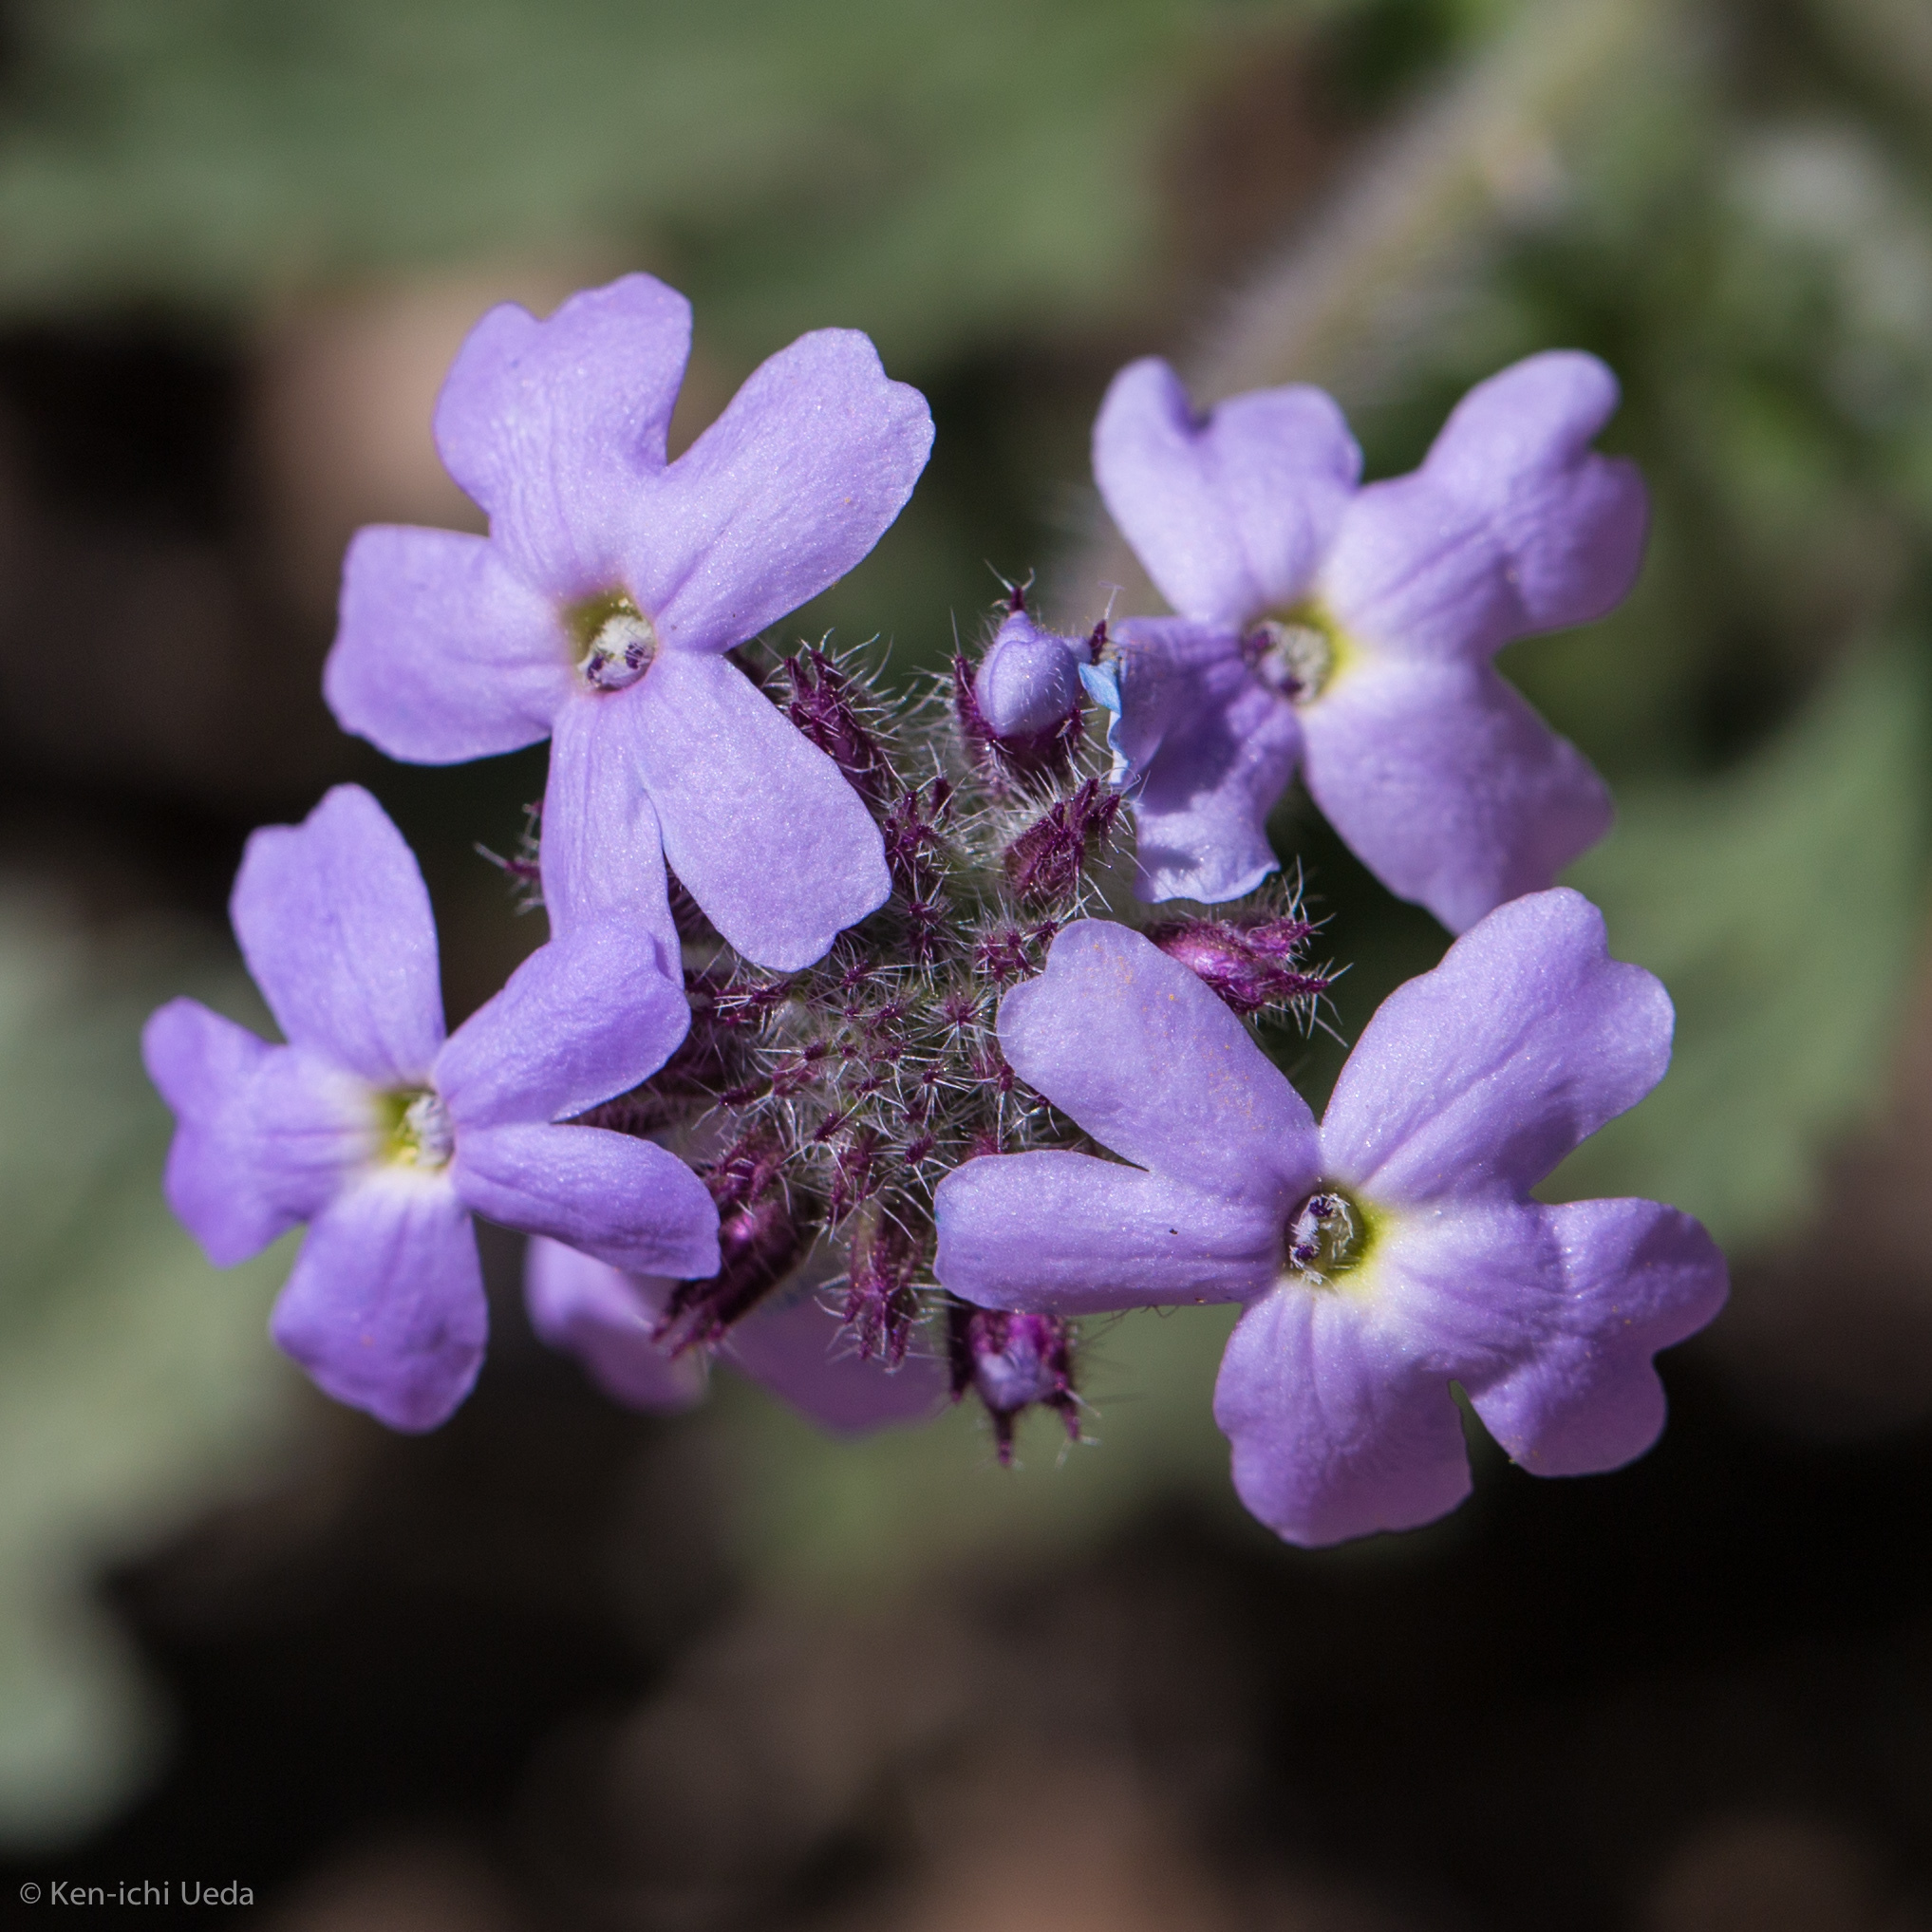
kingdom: Plantae
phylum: Tracheophyta
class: Magnoliopsida
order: Lamiales
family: Verbenaceae
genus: Verbena
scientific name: Verbena gooddingii
